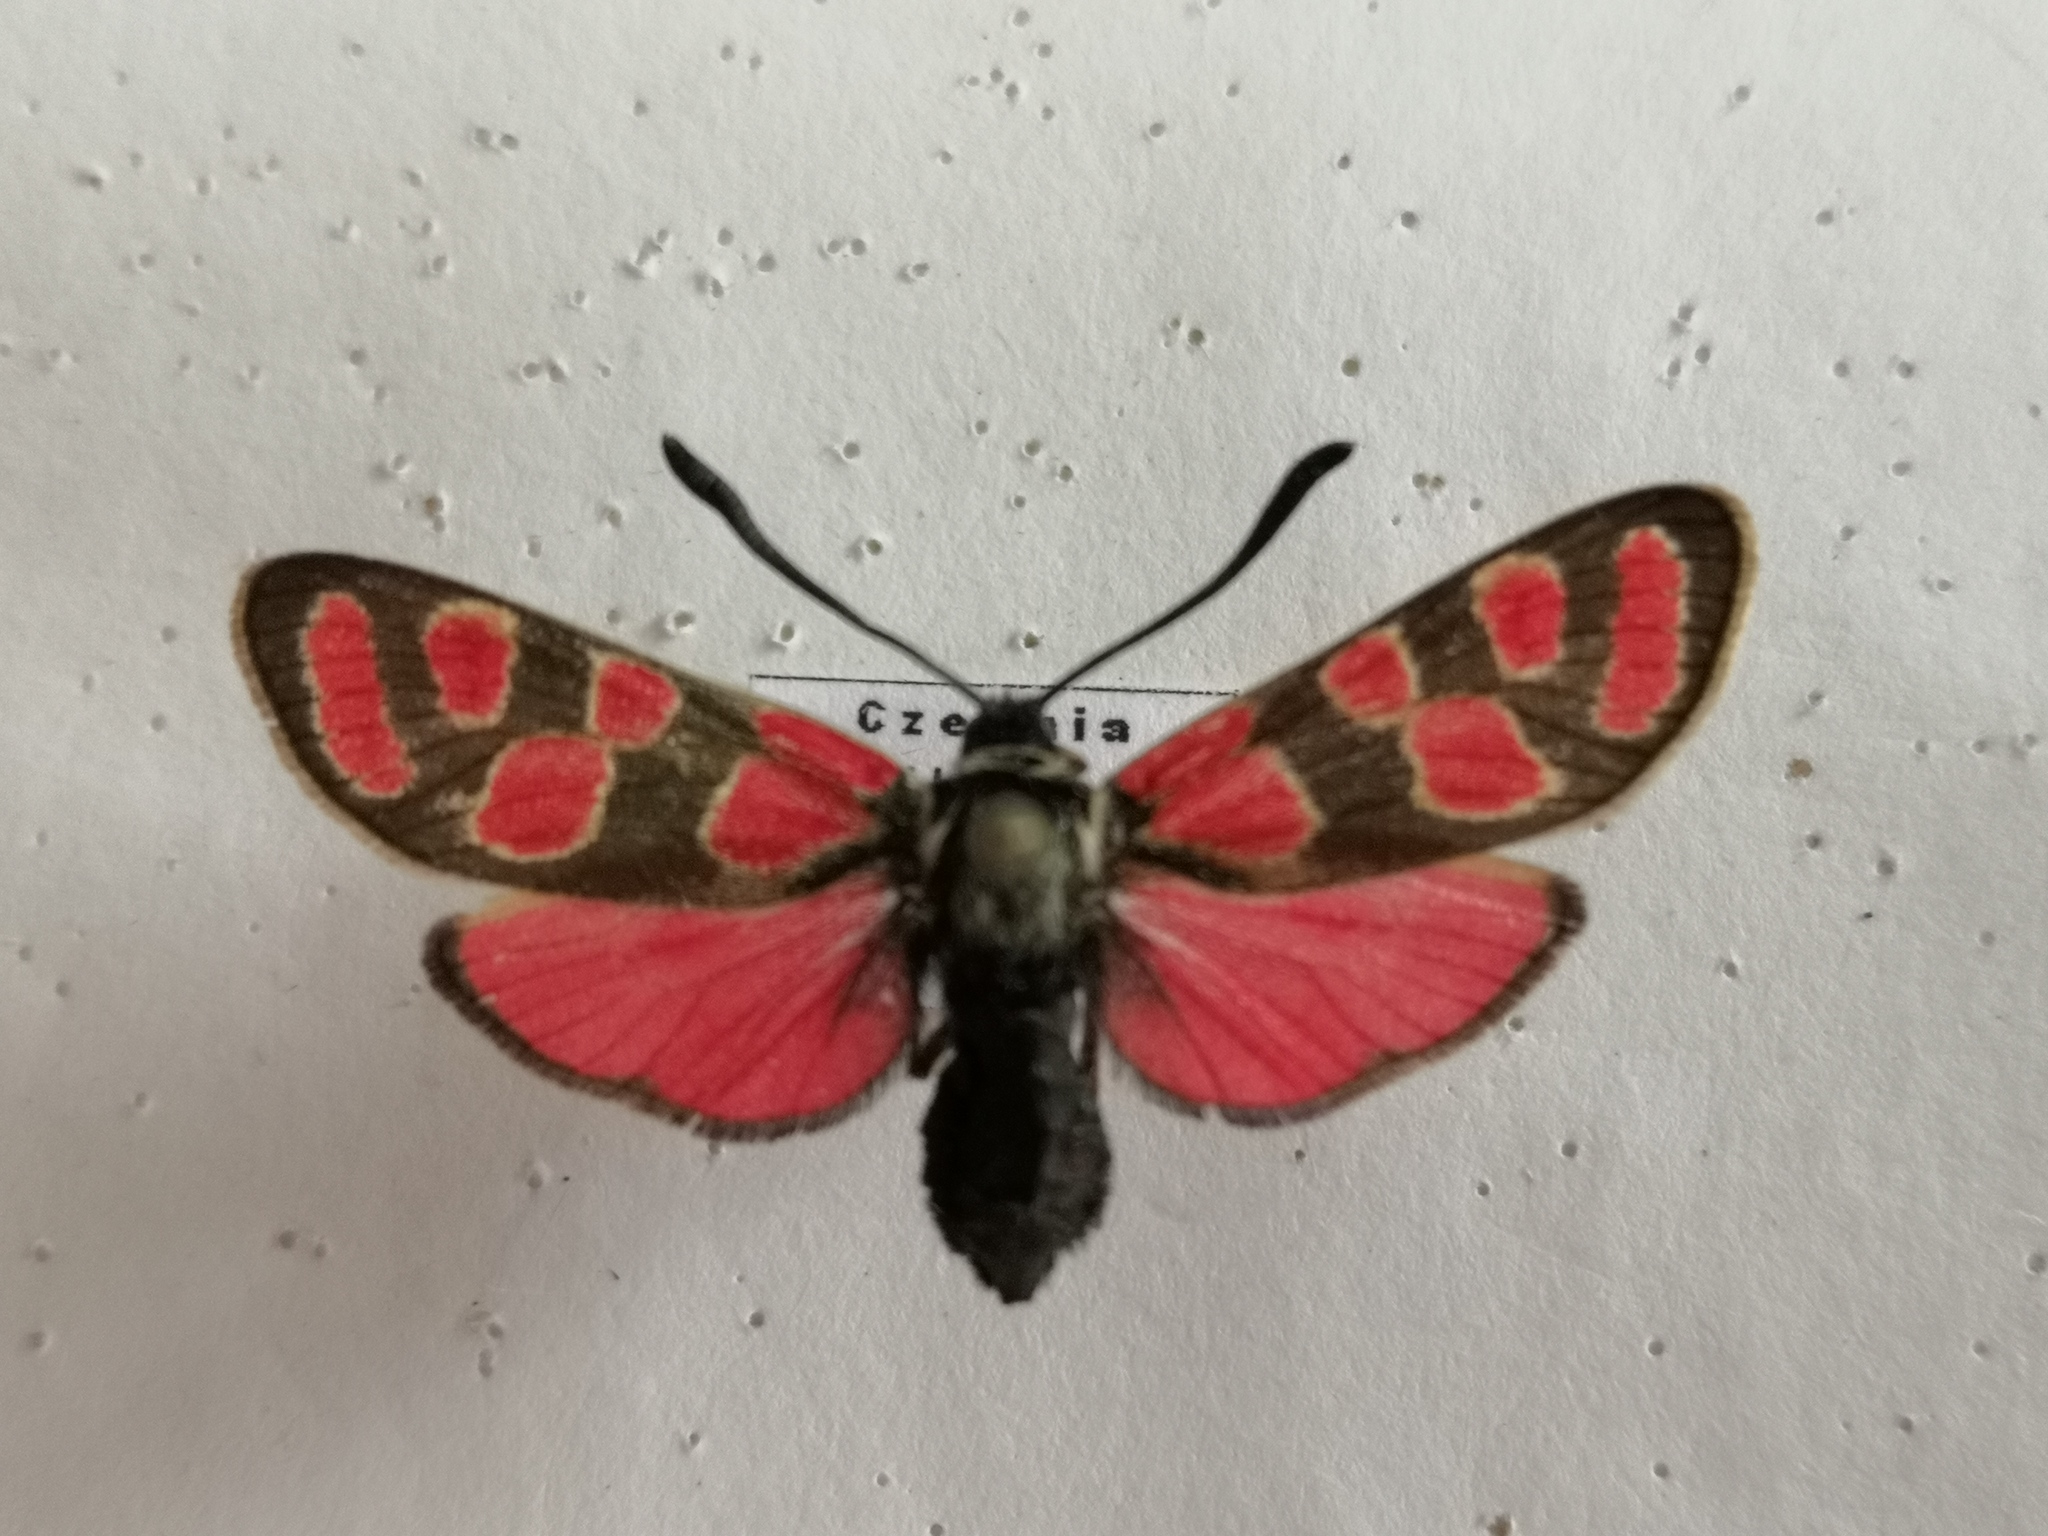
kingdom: Animalia
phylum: Arthropoda
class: Insecta
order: Lepidoptera
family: Zygaenidae
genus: Zygaena
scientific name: Zygaena carniolica
